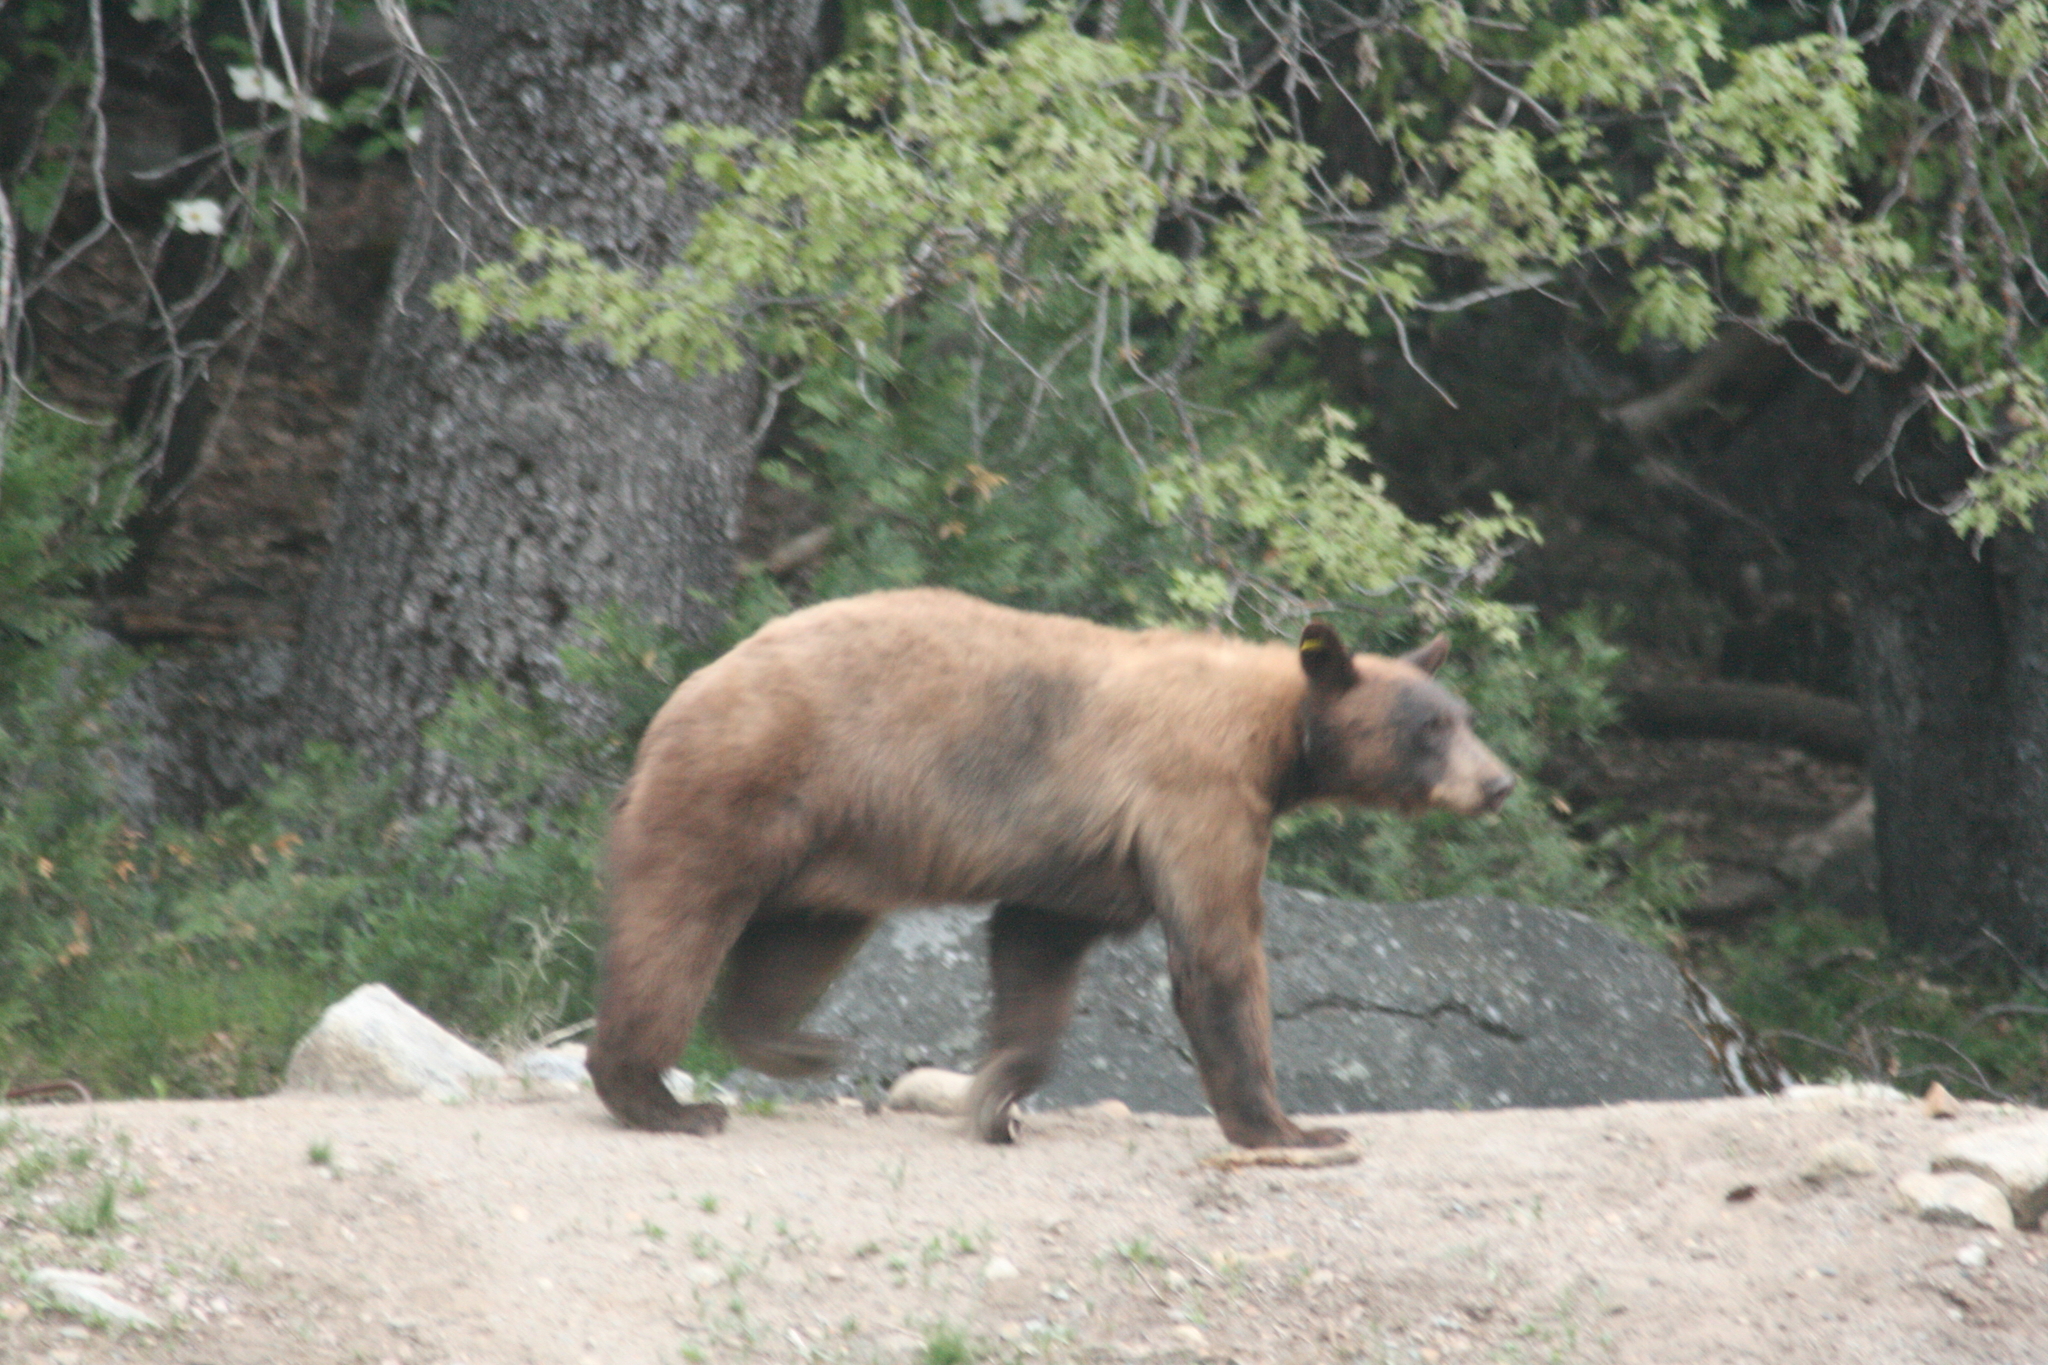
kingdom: Animalia
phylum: Chordata
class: Mammalia
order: Carnivora
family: Ursidae
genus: Ursus
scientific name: Ursus americanus
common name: American black bear
